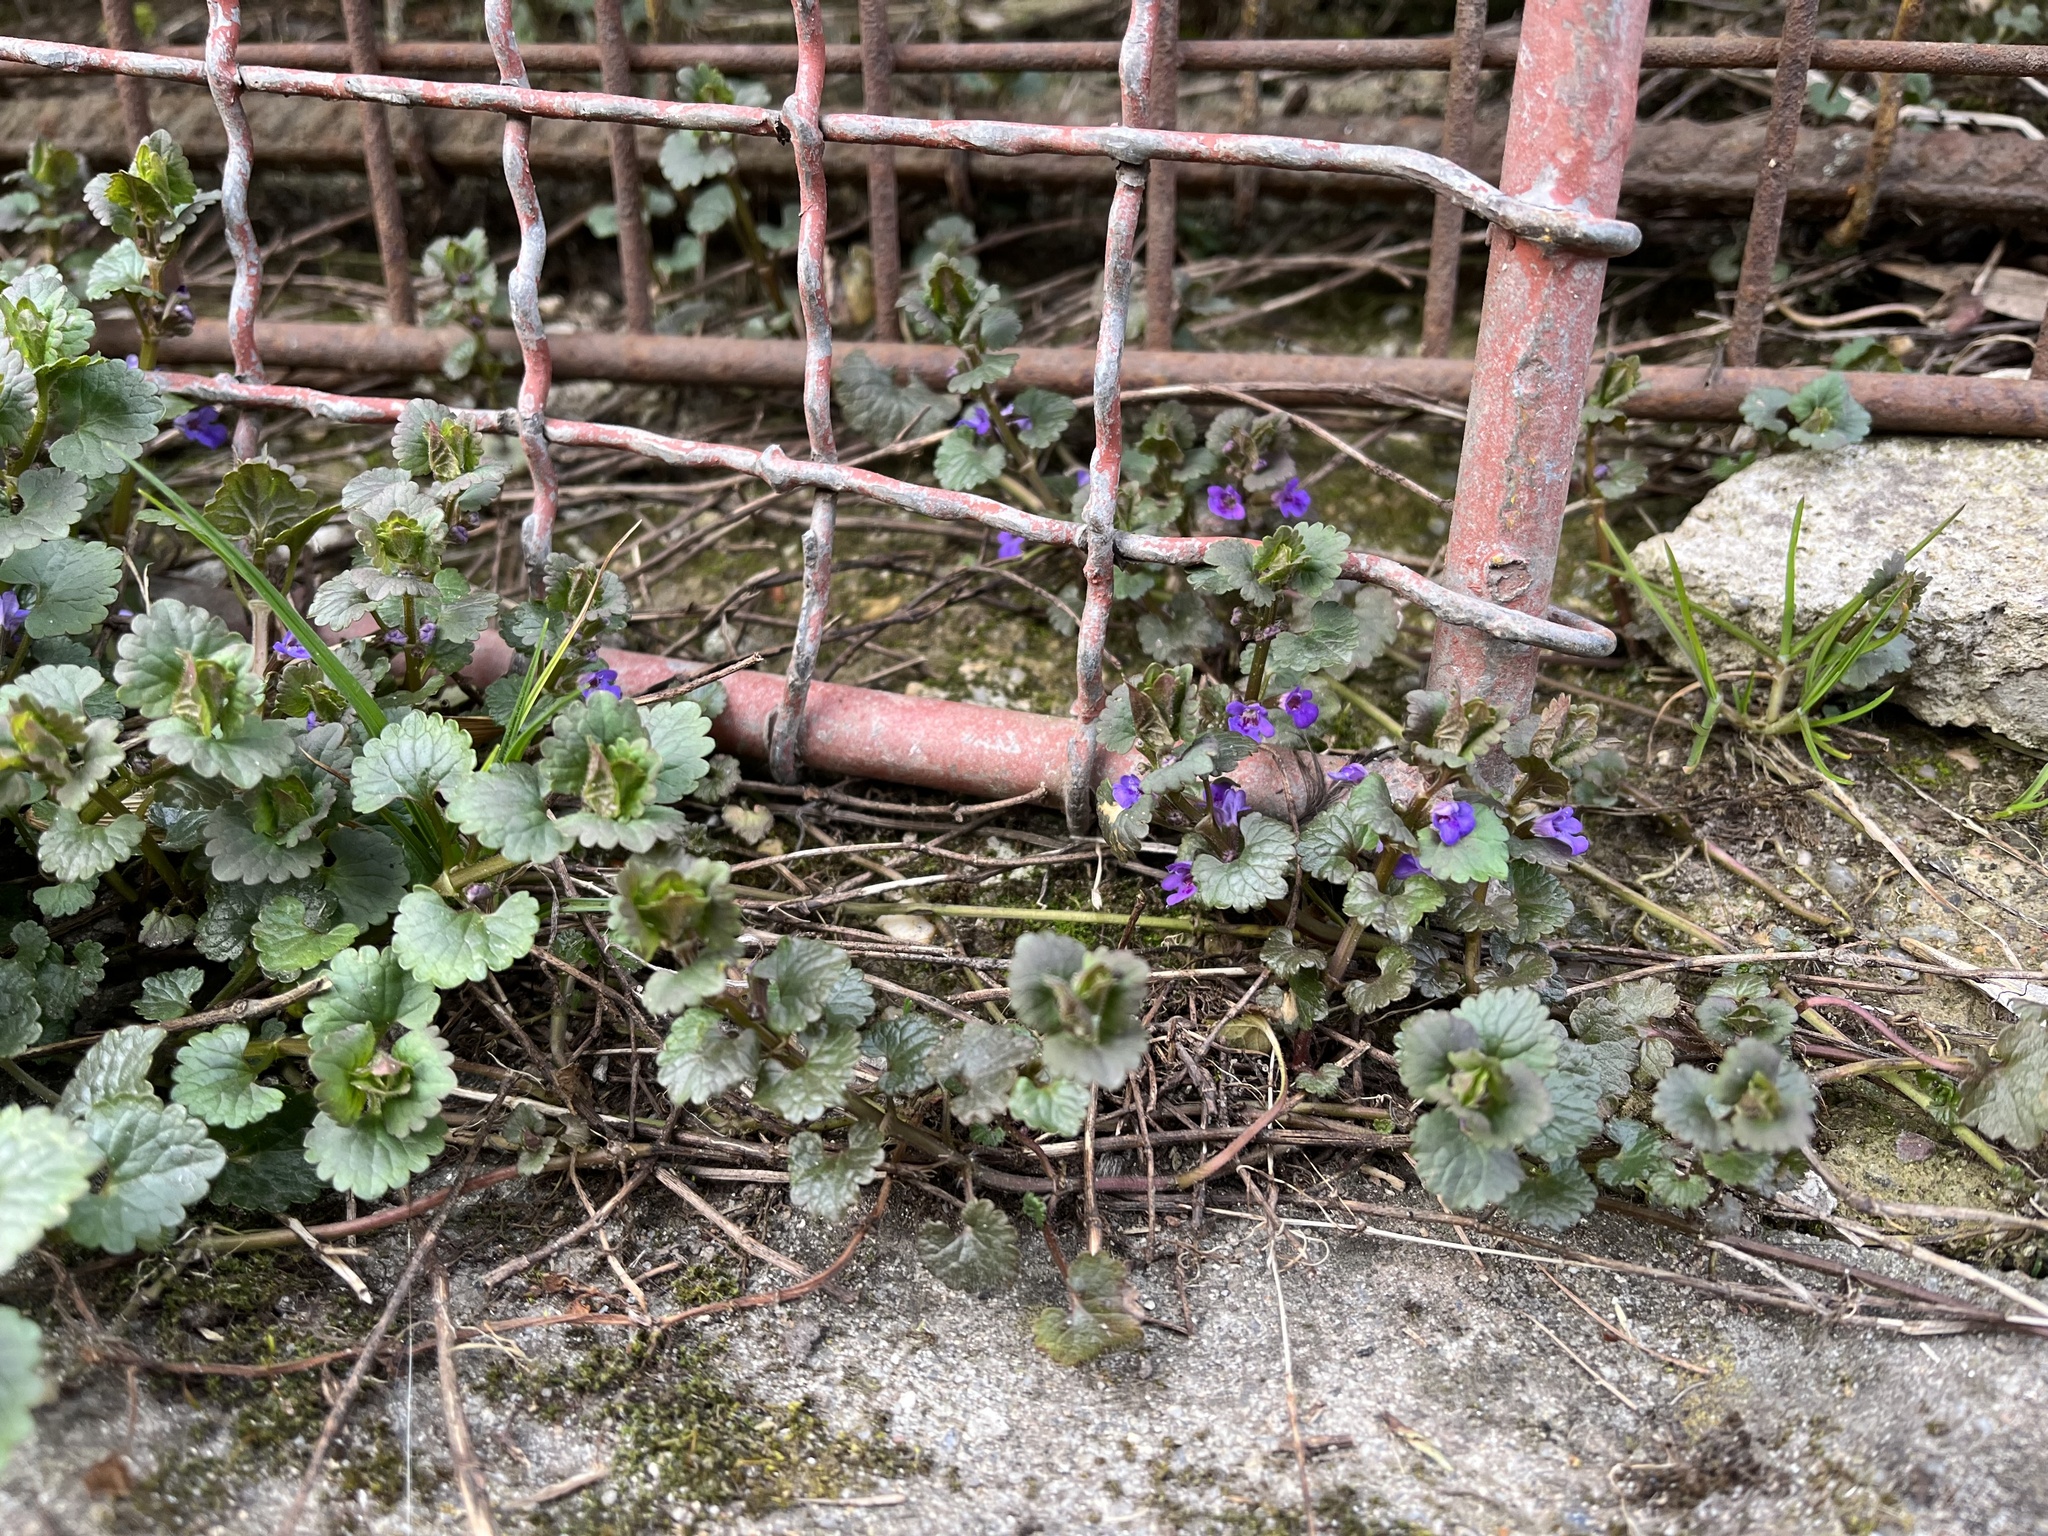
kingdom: Plantae
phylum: Tracheophyta
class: Magnoliopsida
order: Lamiales
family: Lamiaceae
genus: Glechoma
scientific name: Glechoma hederacea
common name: Ground ivy
